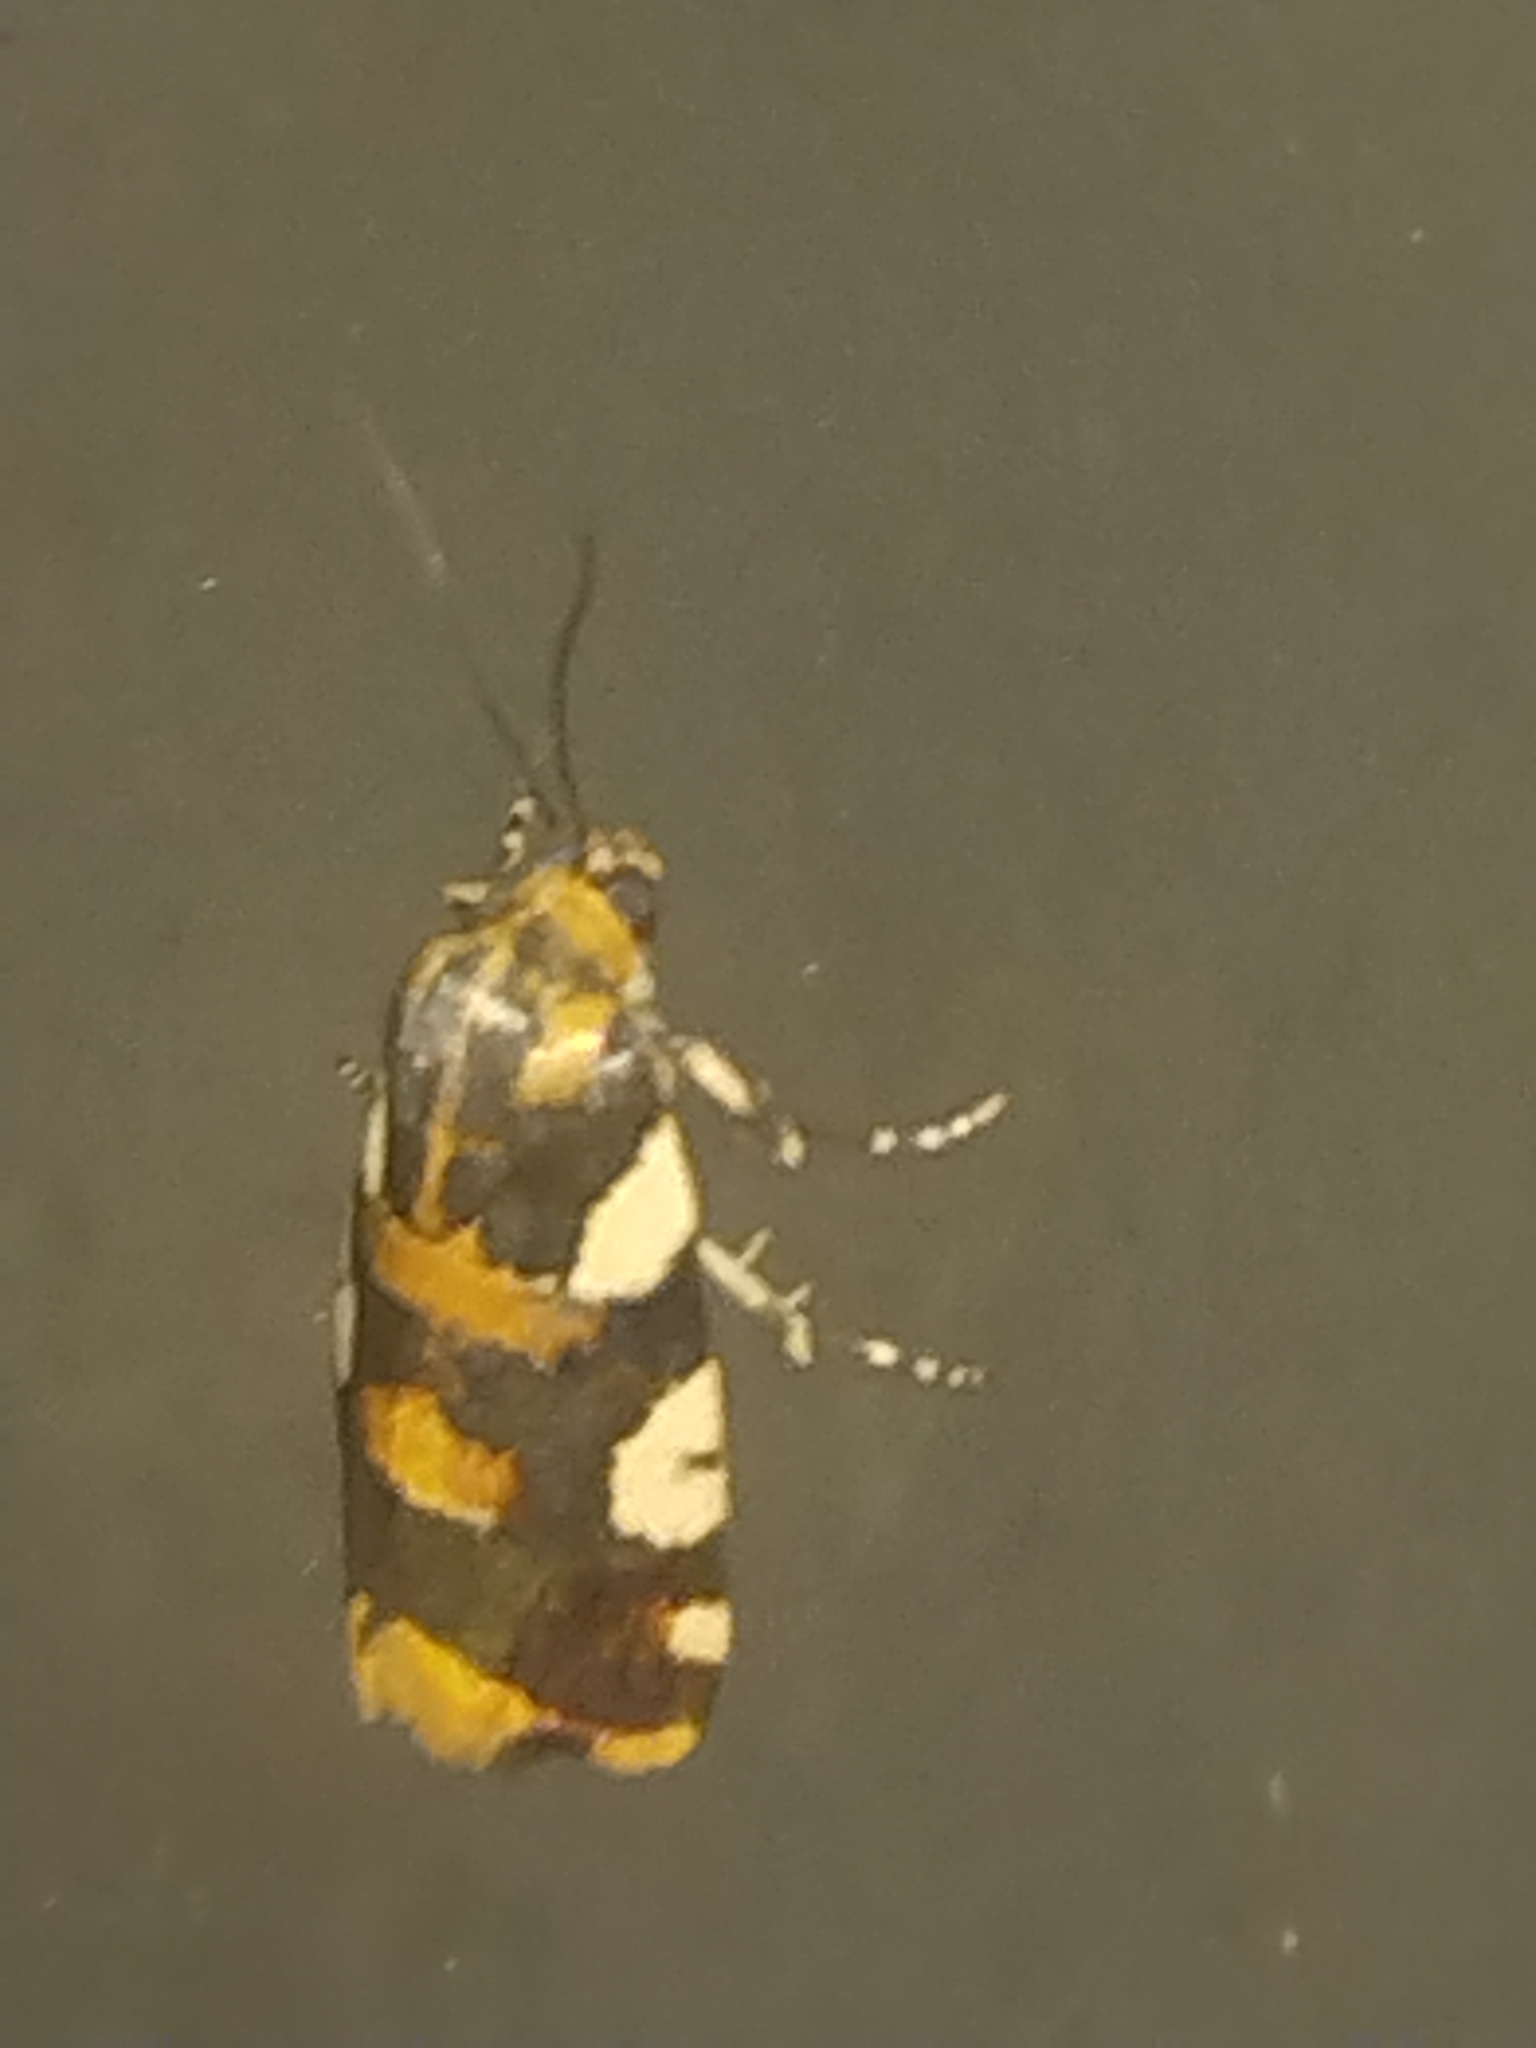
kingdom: Animalia
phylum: Arthropoda
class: Insecta
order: Lepidoptera
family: Noctuidae
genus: Acontia
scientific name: Acontia dama
